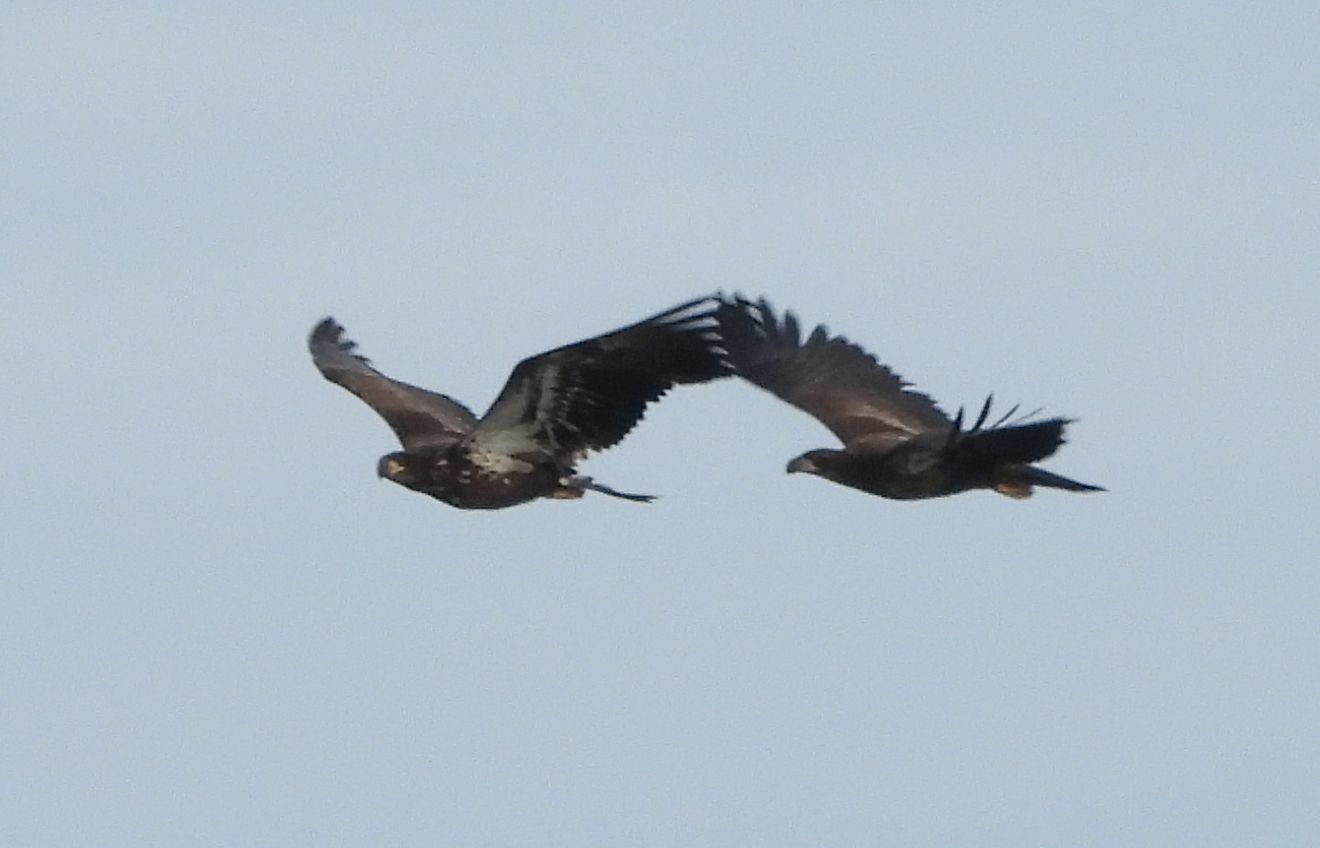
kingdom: Animalia
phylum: Chordata
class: Aves
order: Accipitriformes
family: Accipitridae
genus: Haliaeetus
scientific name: Haliaeetus leucocephalus
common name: Bald eagle
